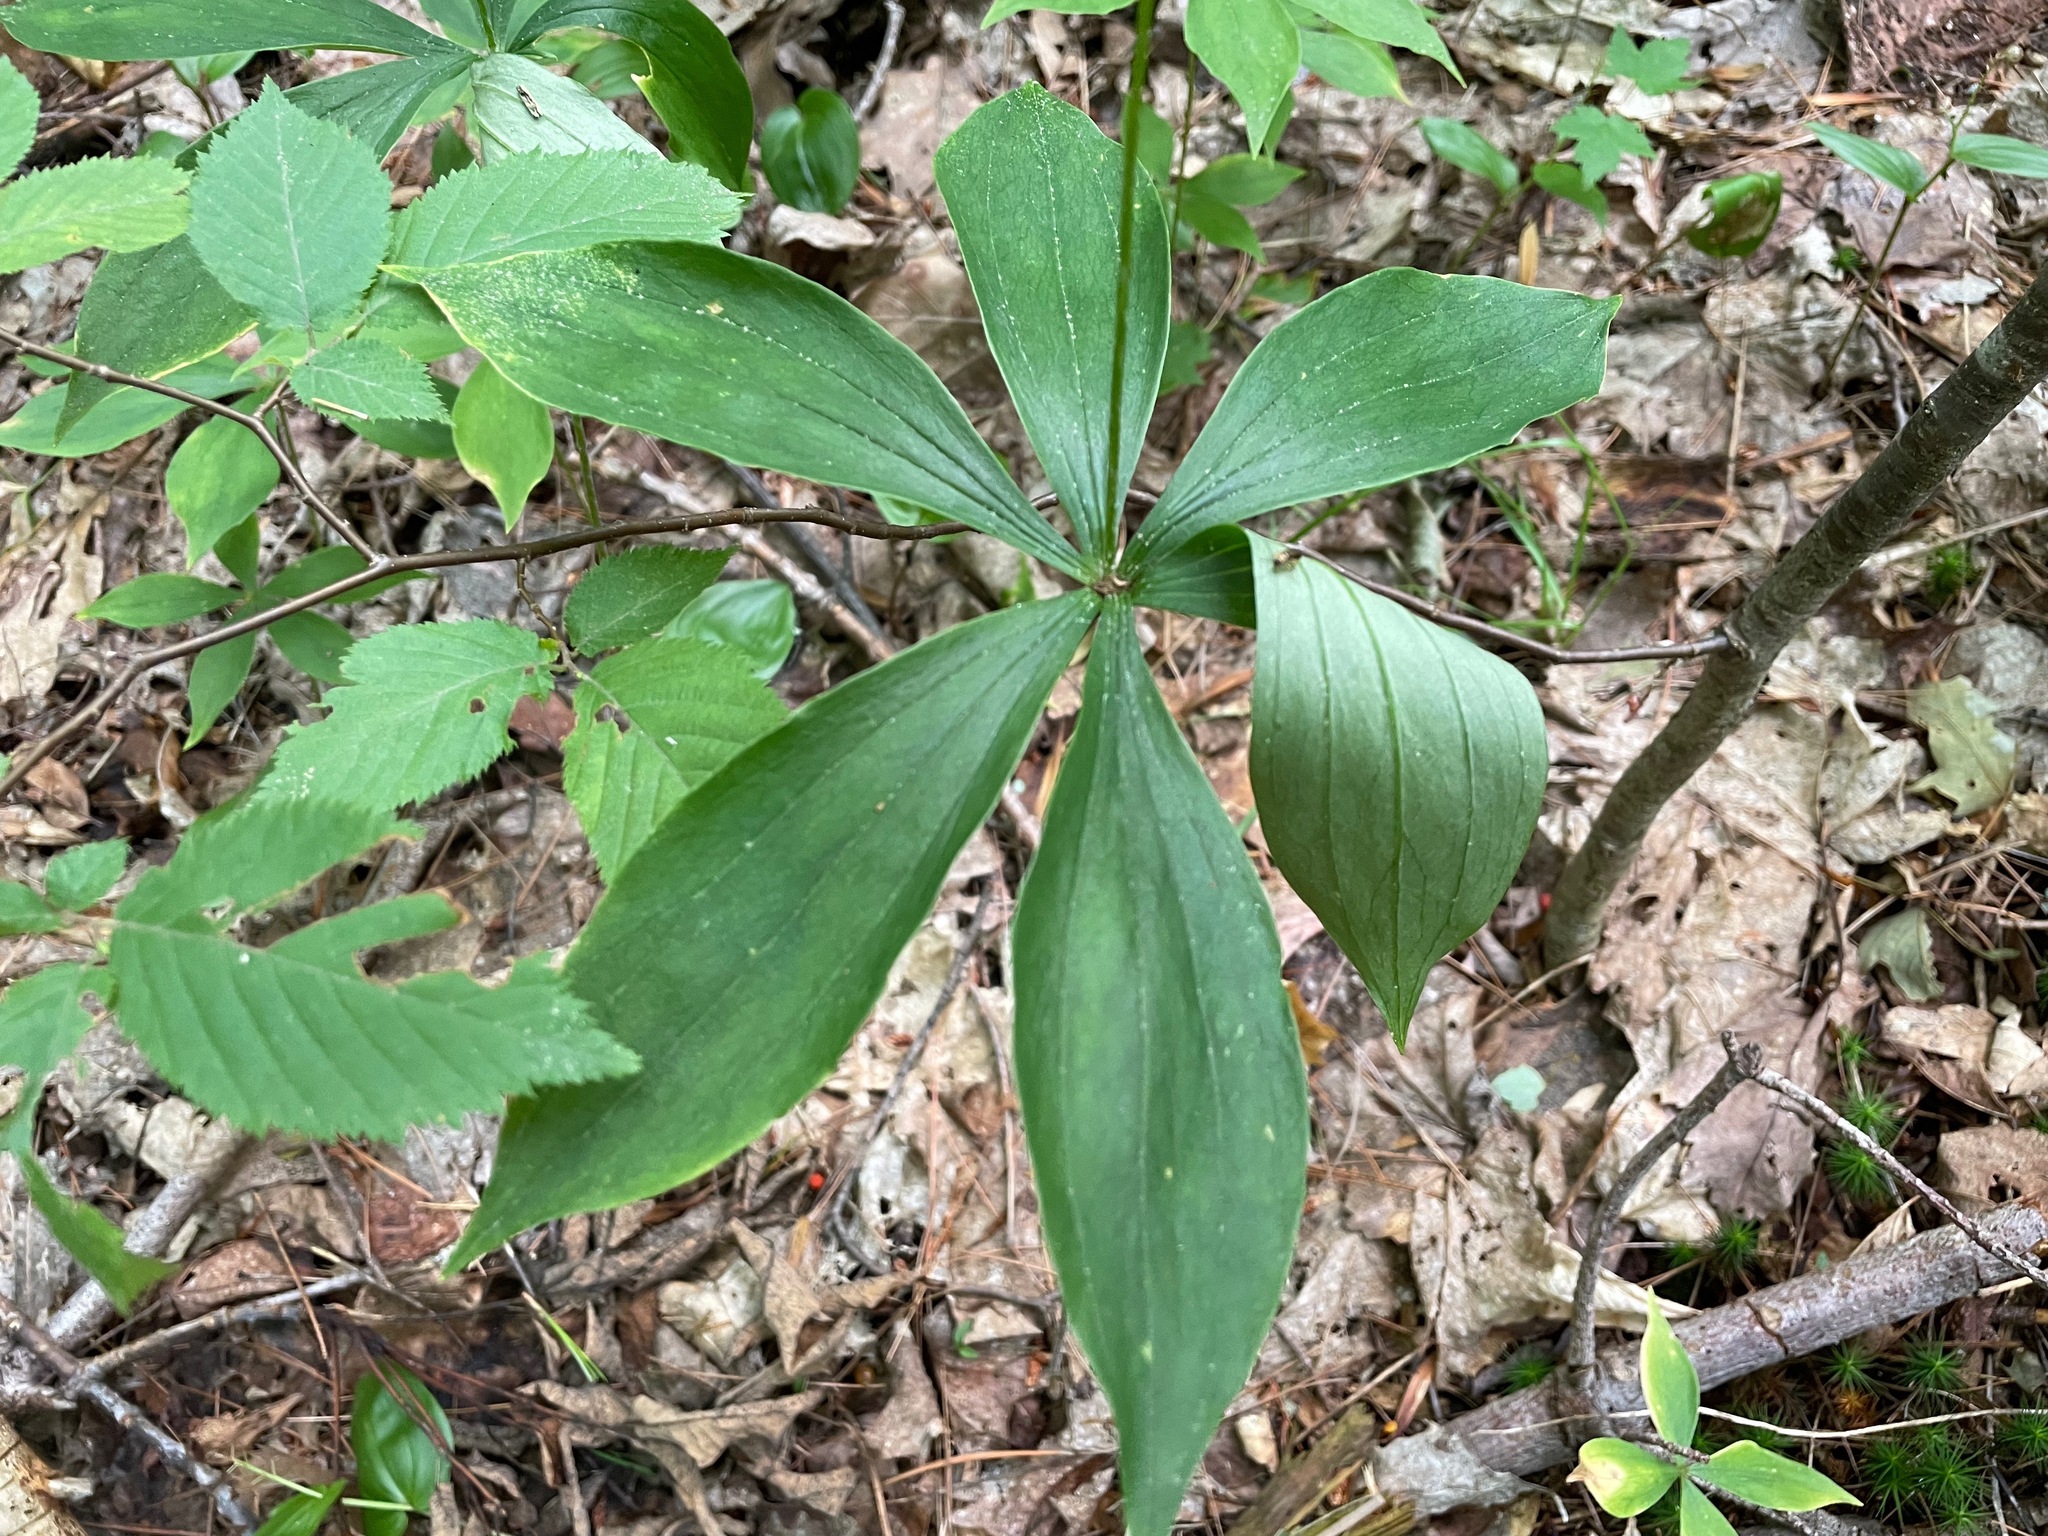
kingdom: Plantae
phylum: Tracheophyta
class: Liliopsida
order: Liliales
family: Liliaceae
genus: Medeola
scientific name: Medeola virginiana
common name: Indian cucumber-root
